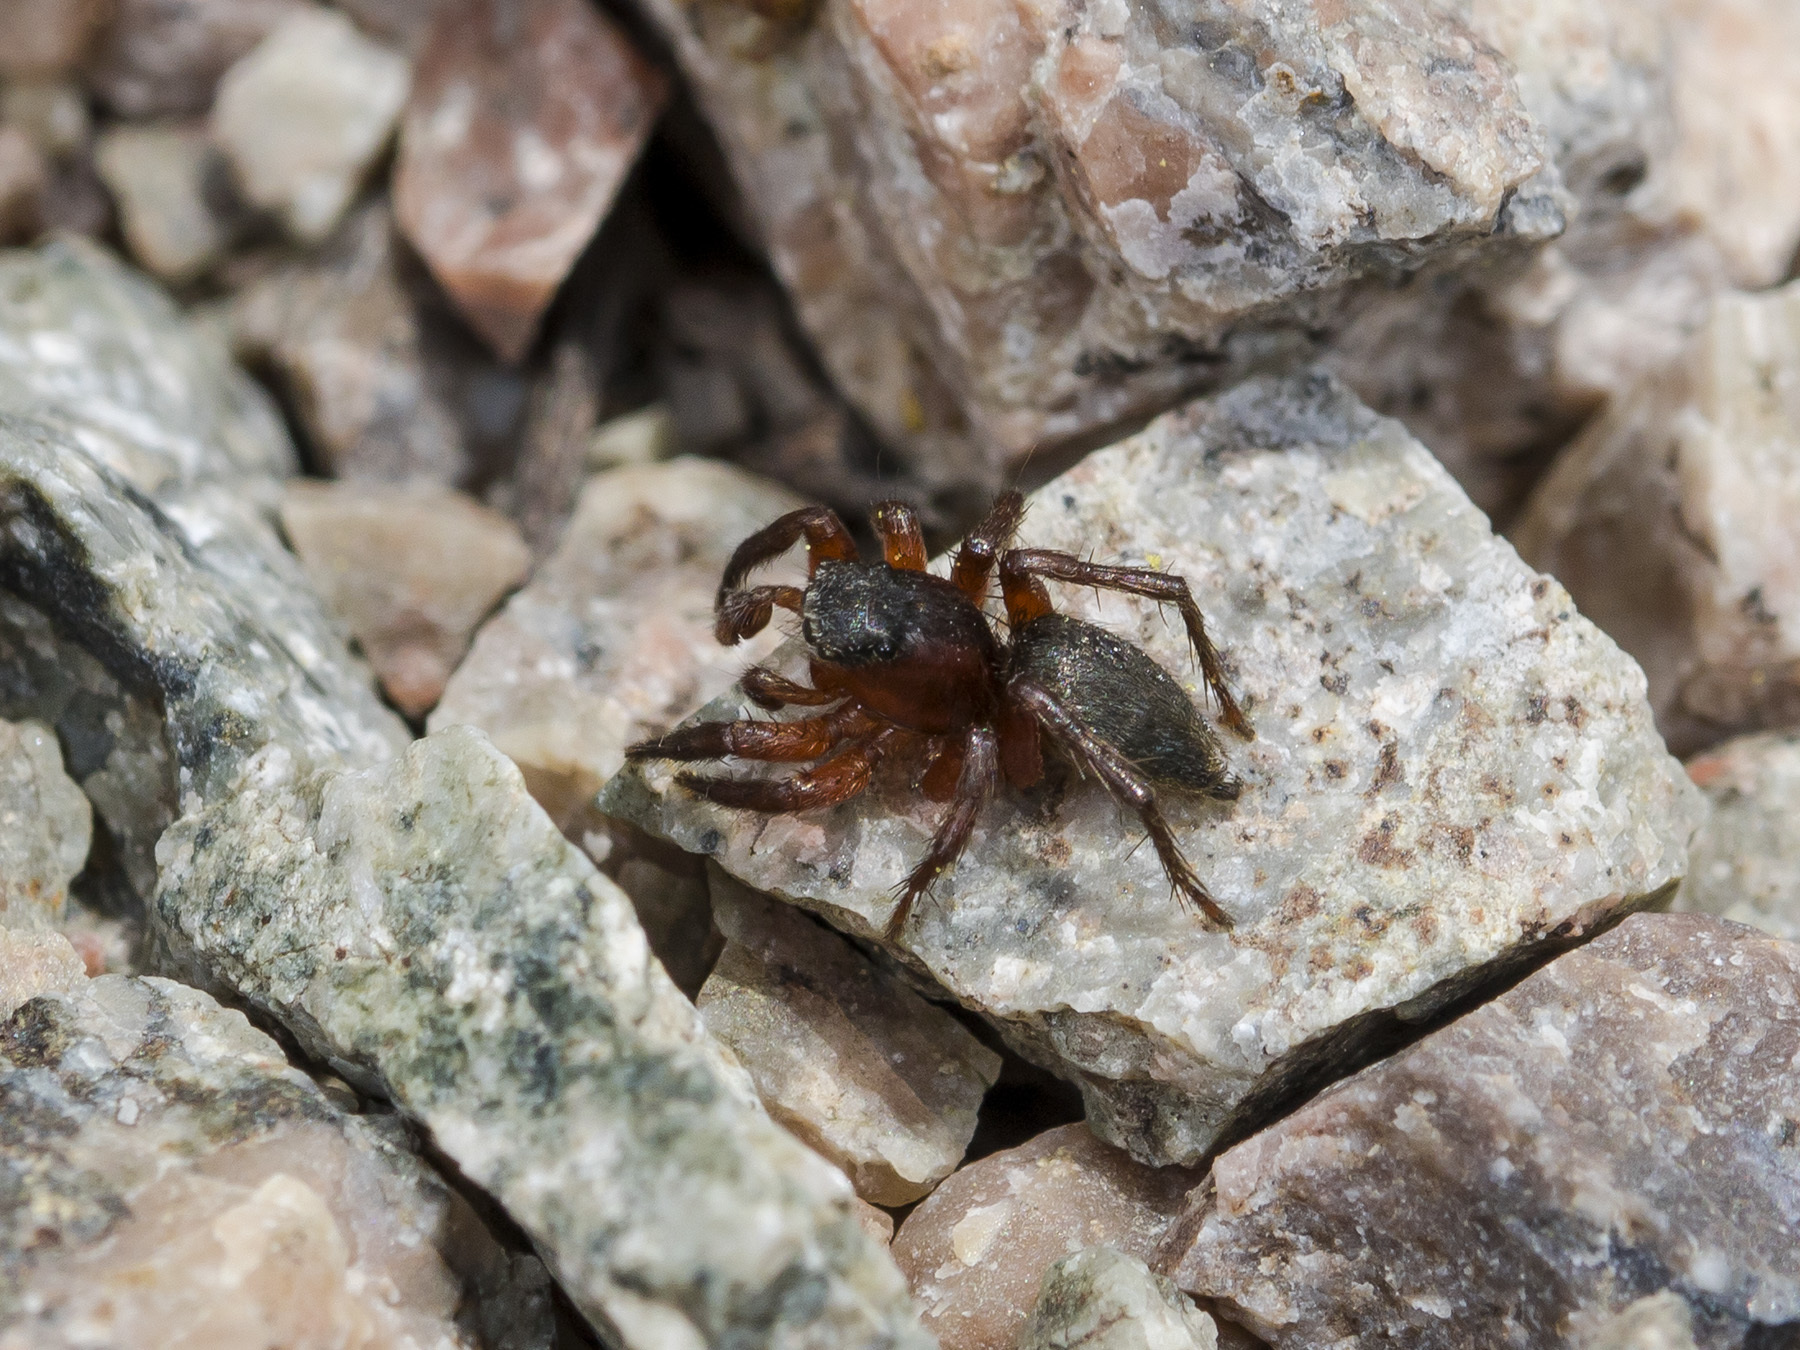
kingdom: Animalia
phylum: Arthropoda
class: Arachnida
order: Araneae
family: Salticidae
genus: Phlegra
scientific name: Phlegra fasciata
